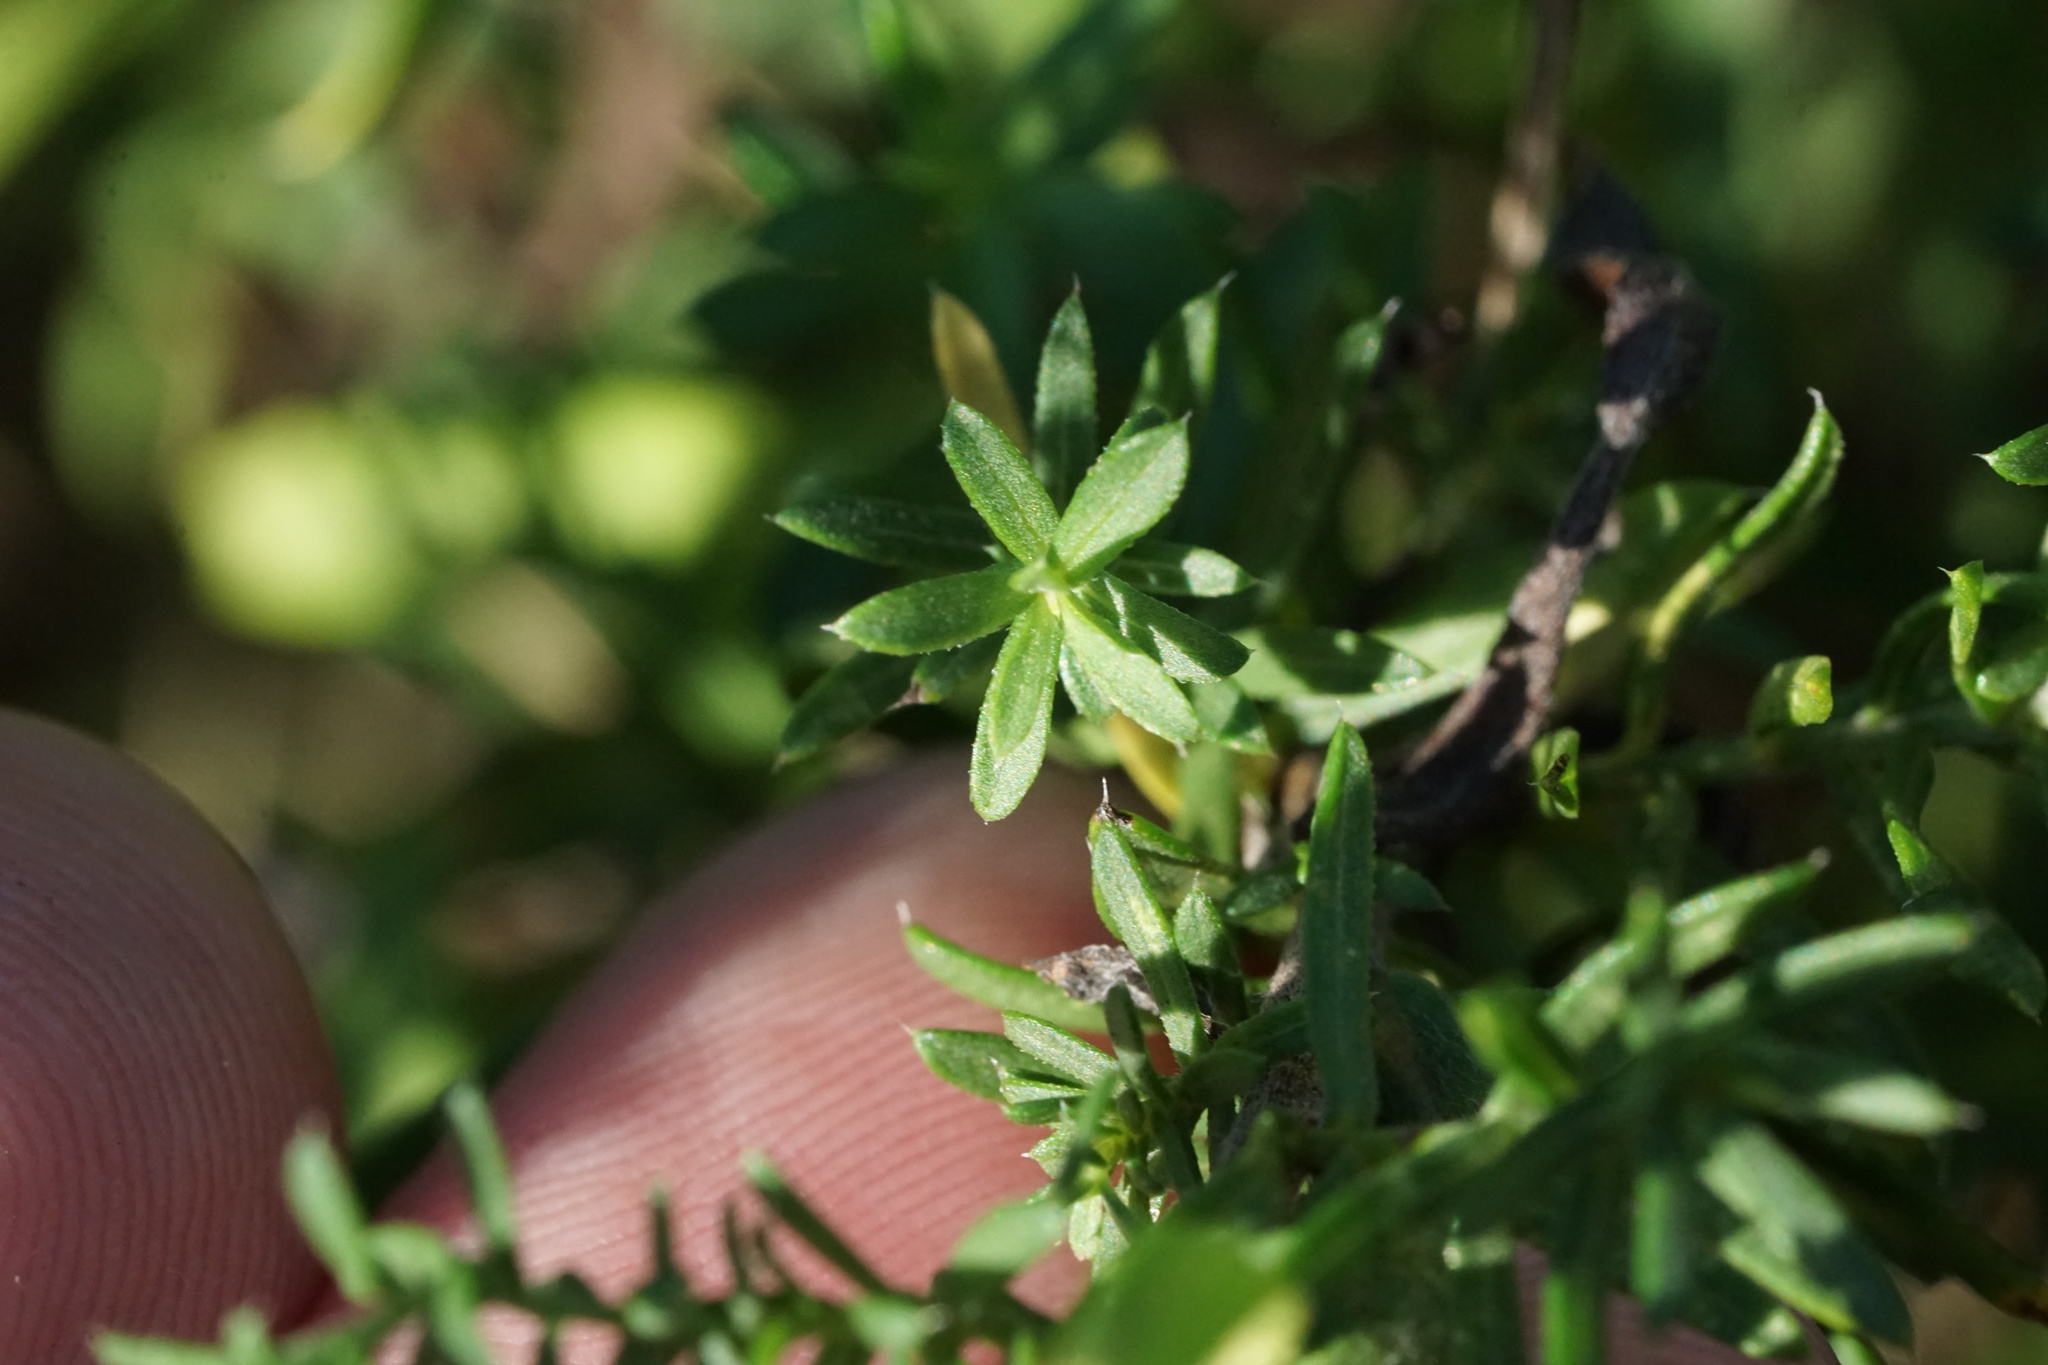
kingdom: Plantae
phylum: Tracheophyta
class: Magnoliopsida
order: Asterales
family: Asteraceae
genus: Symphyotrichum
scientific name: Symphyotrichum ericoides
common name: Heath aster
